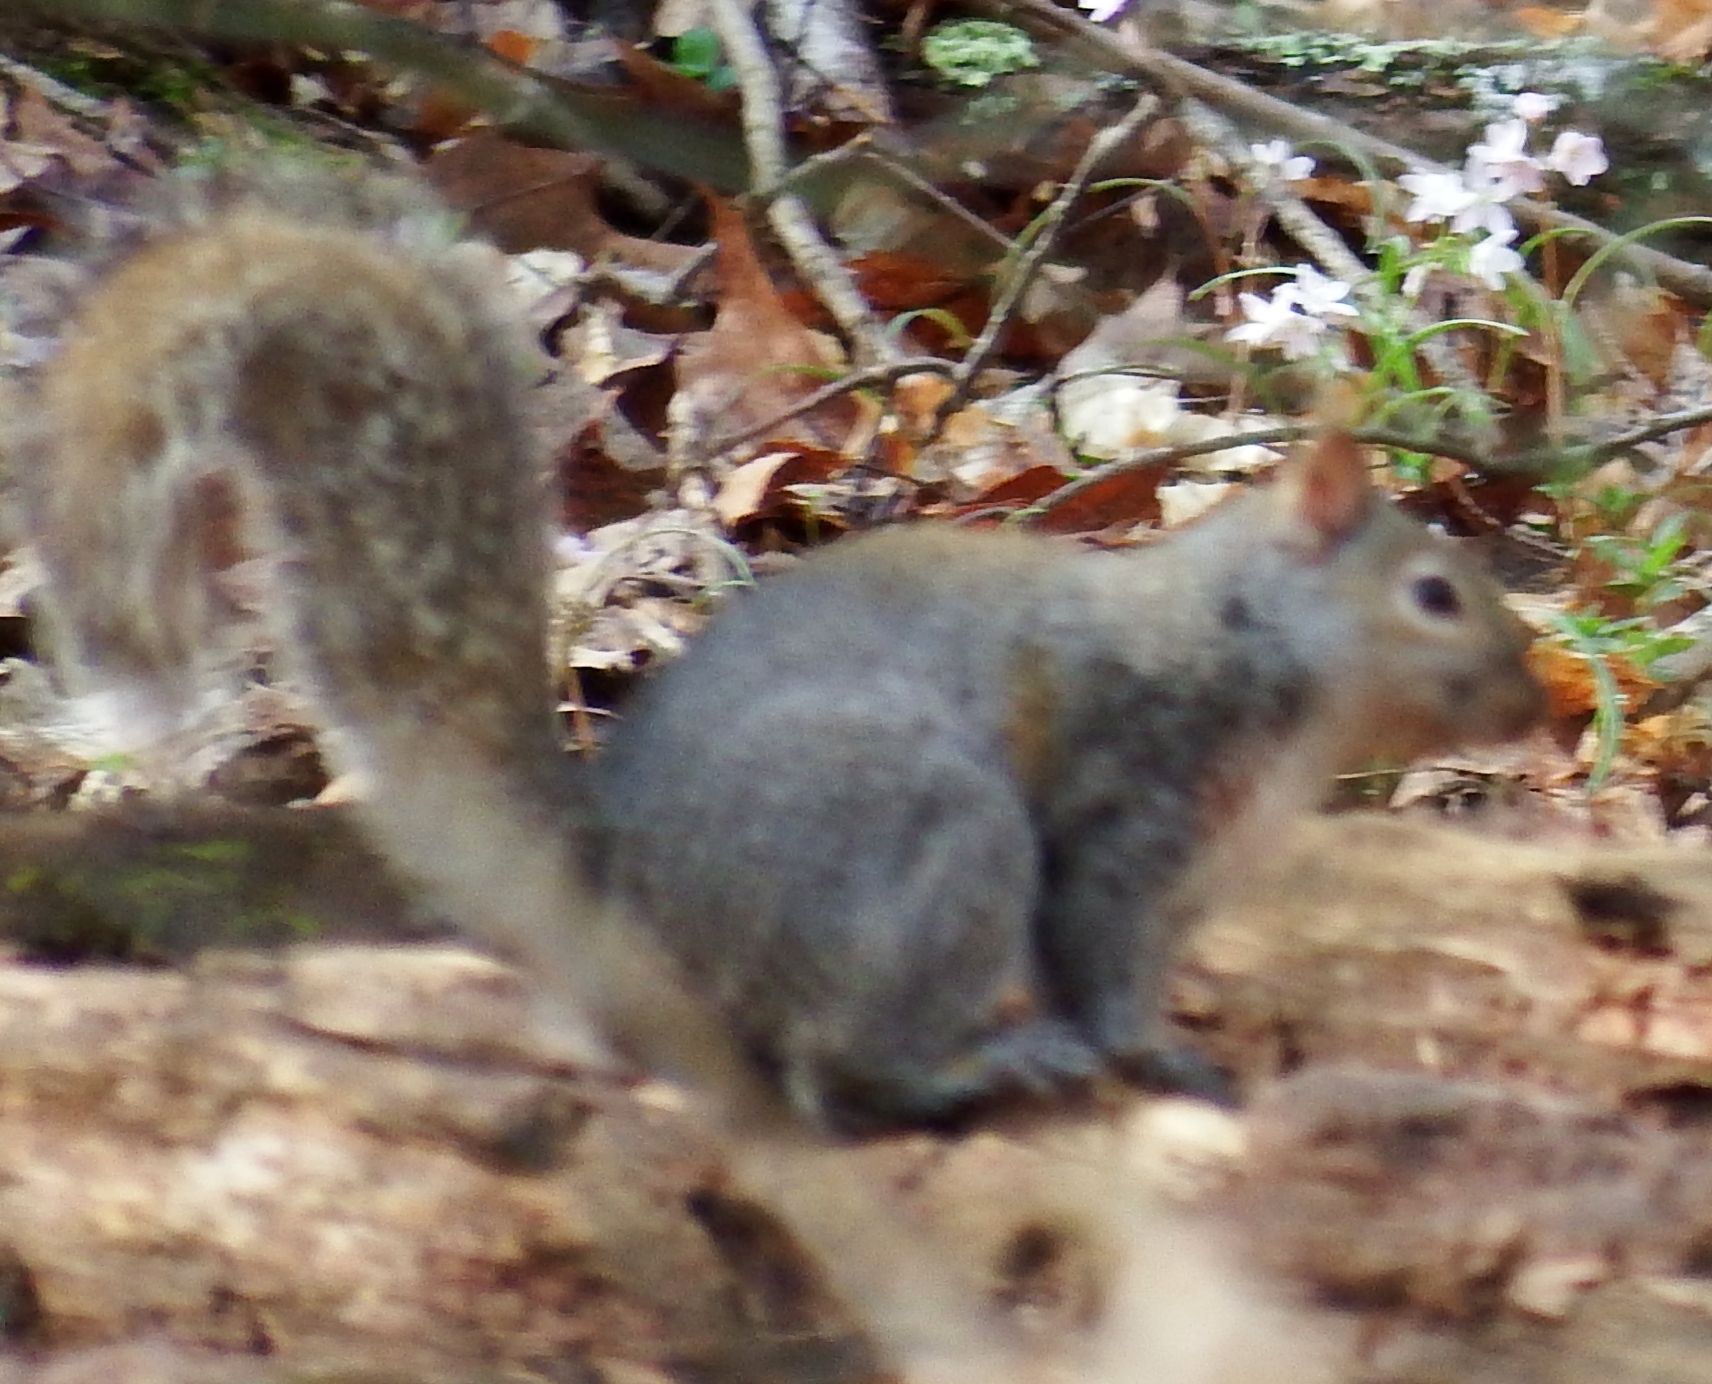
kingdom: Animalia
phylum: Chordata
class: Mammalia
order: Rodentia
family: Sciuridae
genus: Sciurus
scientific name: Sciurus carolinensis
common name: Eastern gray squirrel
